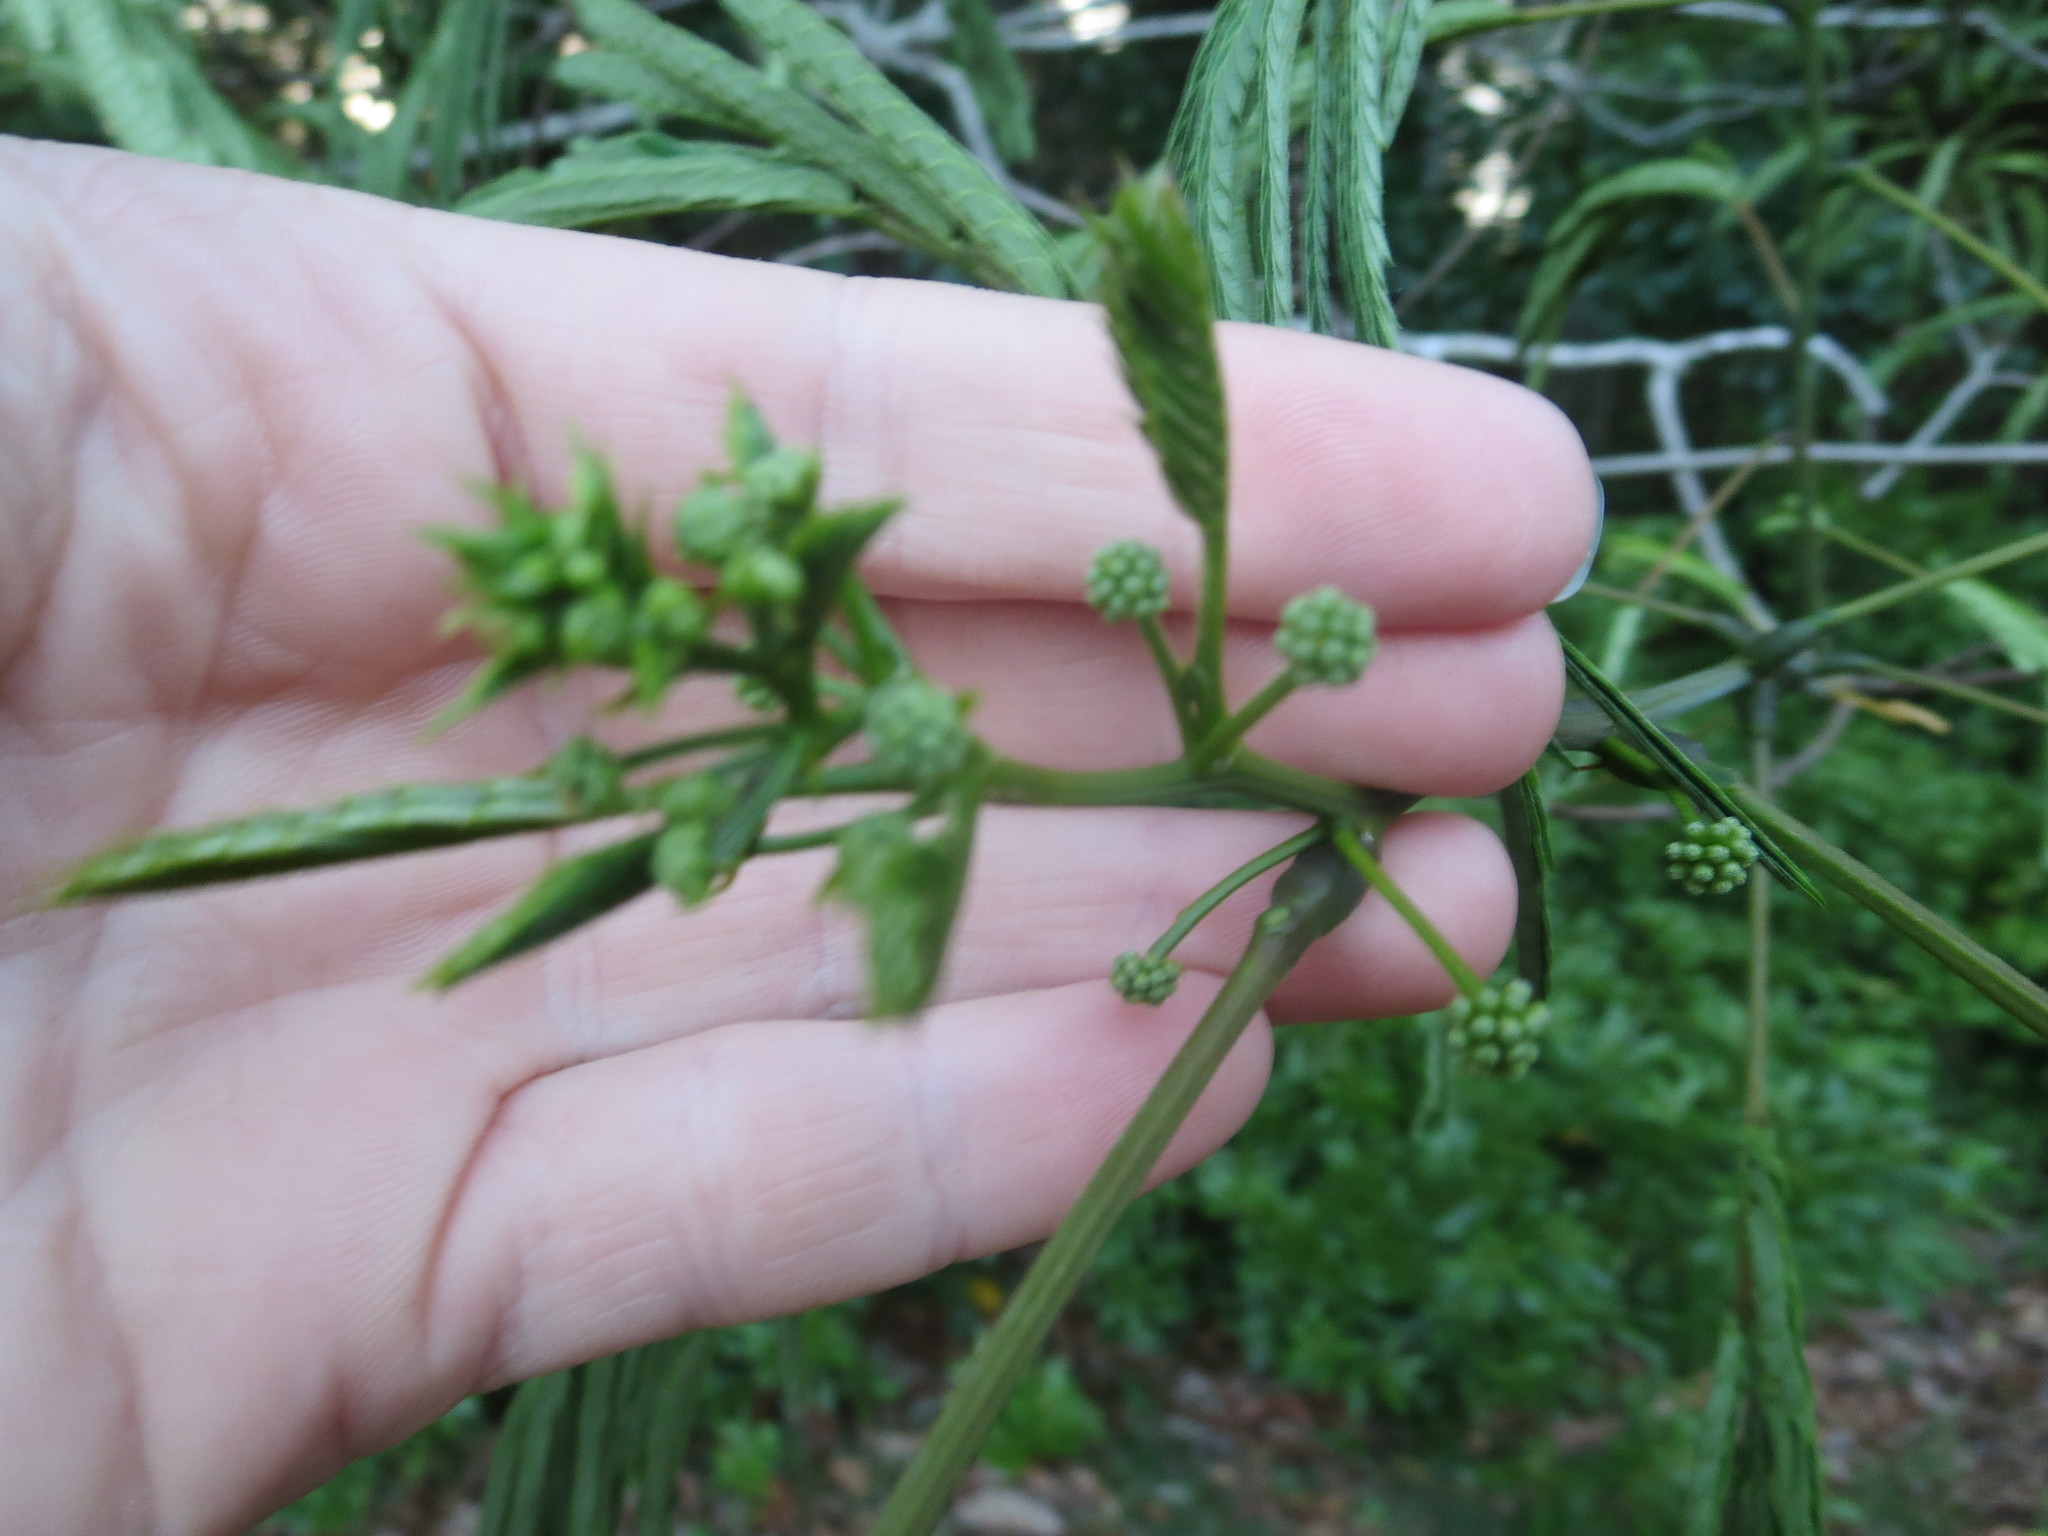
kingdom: Plantae
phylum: Tracheophyta
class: Magnoliopsida
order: Fabales
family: Fabaceae
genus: Albizia
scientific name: Albizia julibrissin
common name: Silktree
